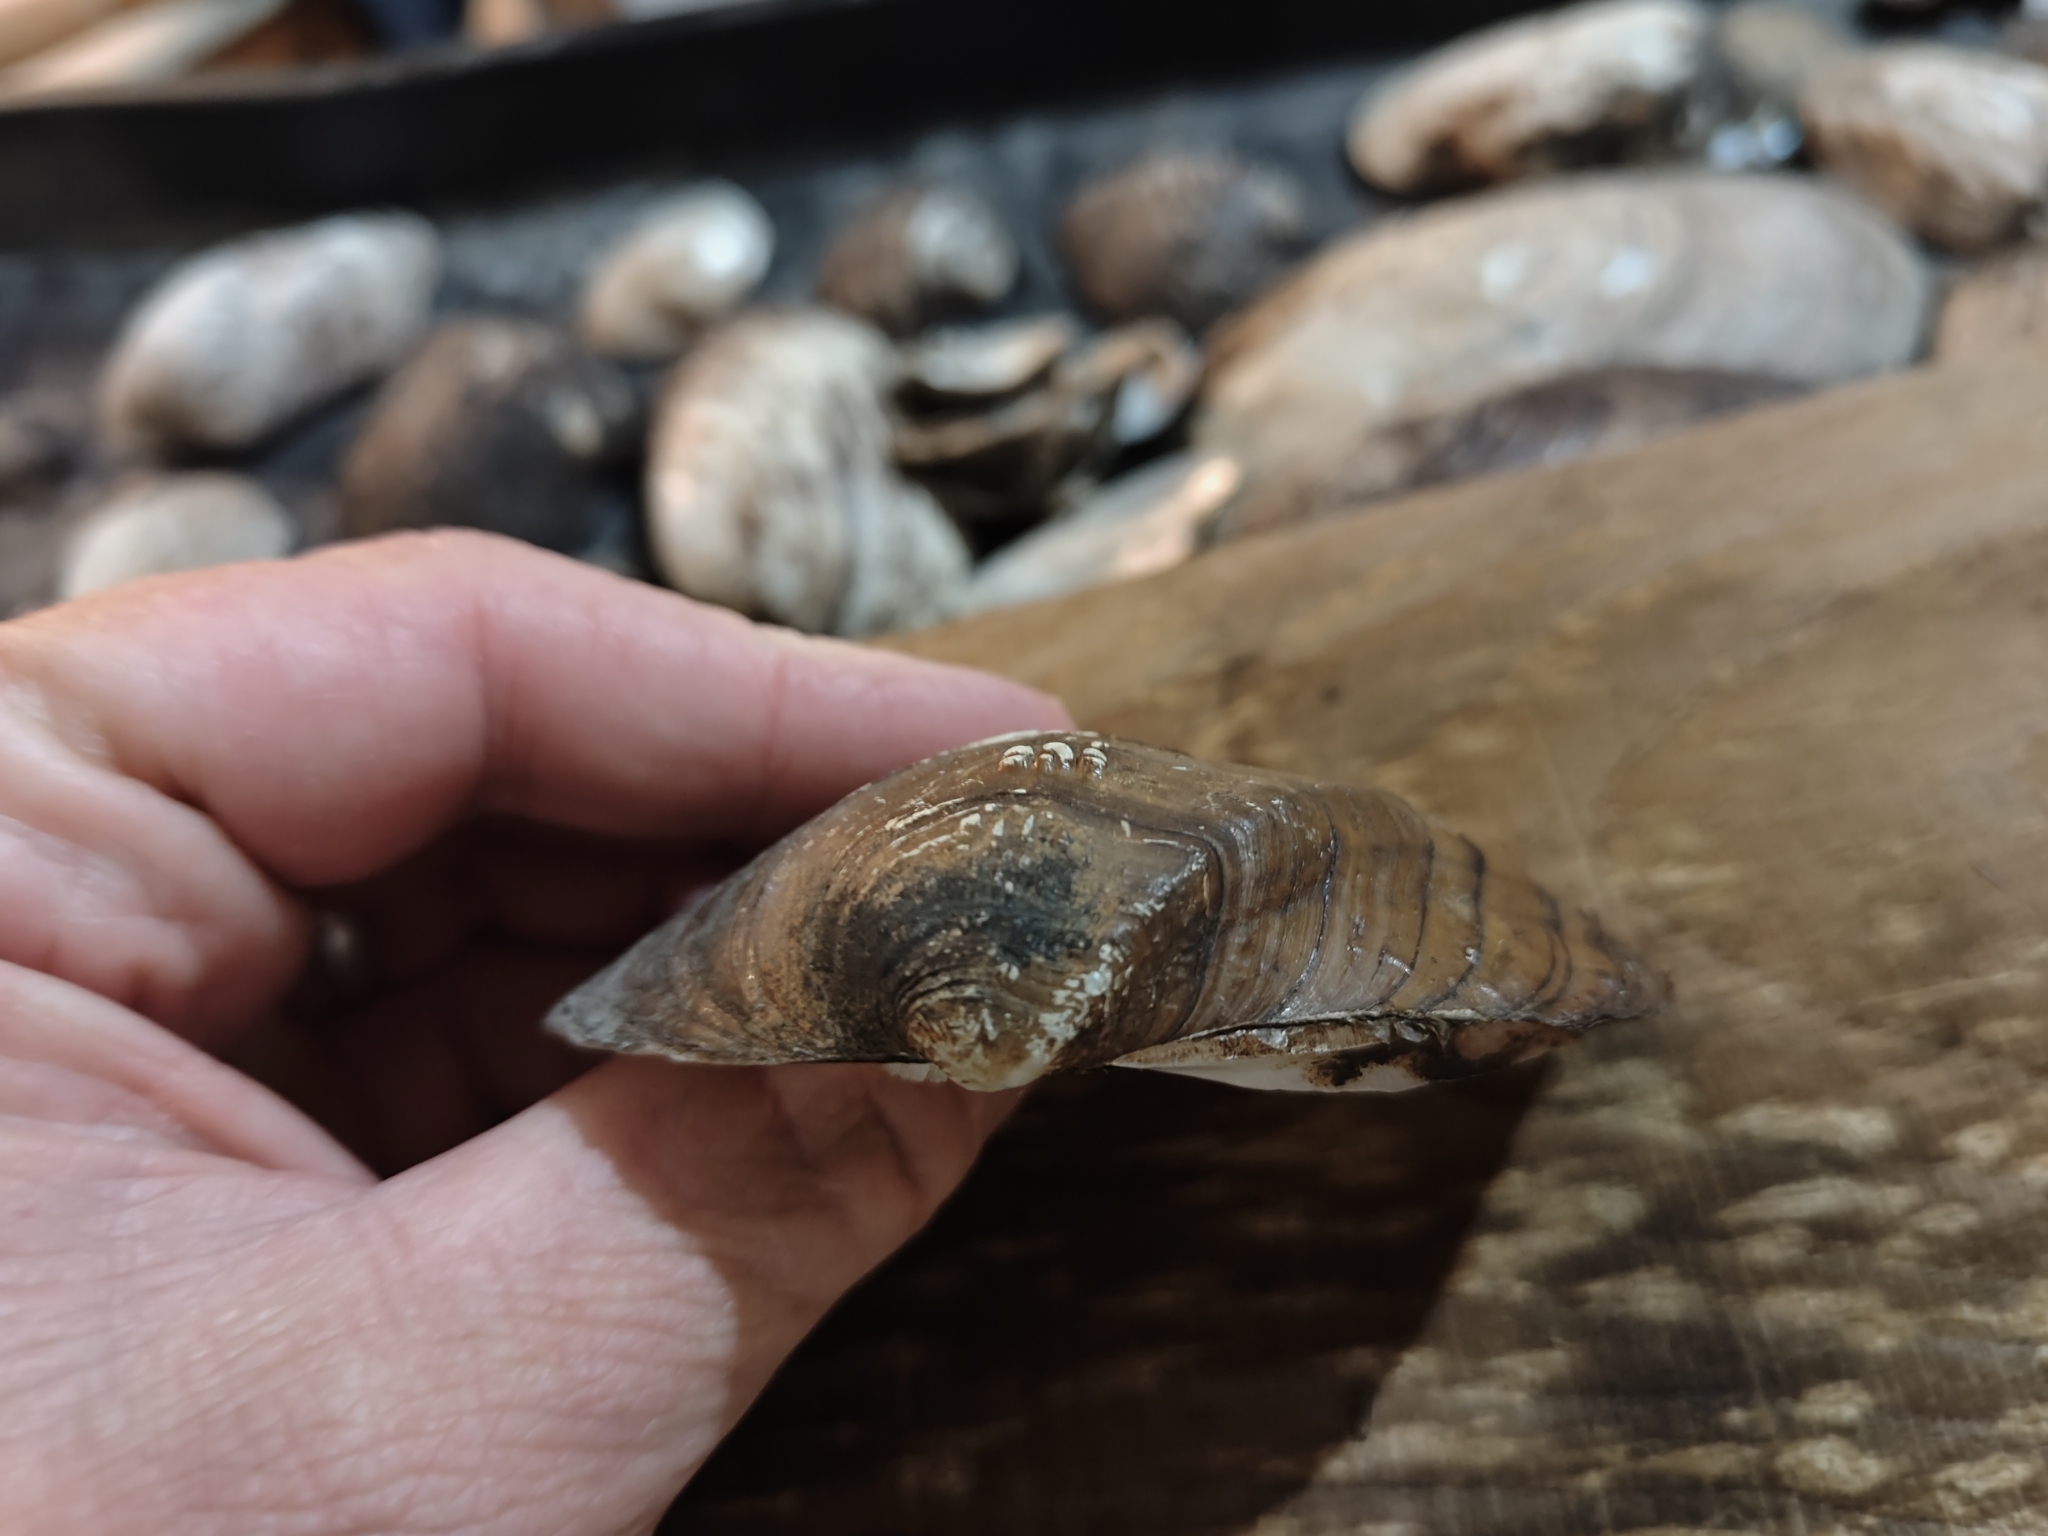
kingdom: Animalia
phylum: Mollusca
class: Bivalvia
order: Unionida
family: Unionidae
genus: Quadrula
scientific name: Quadrula quadrula
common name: Mapleleaf
